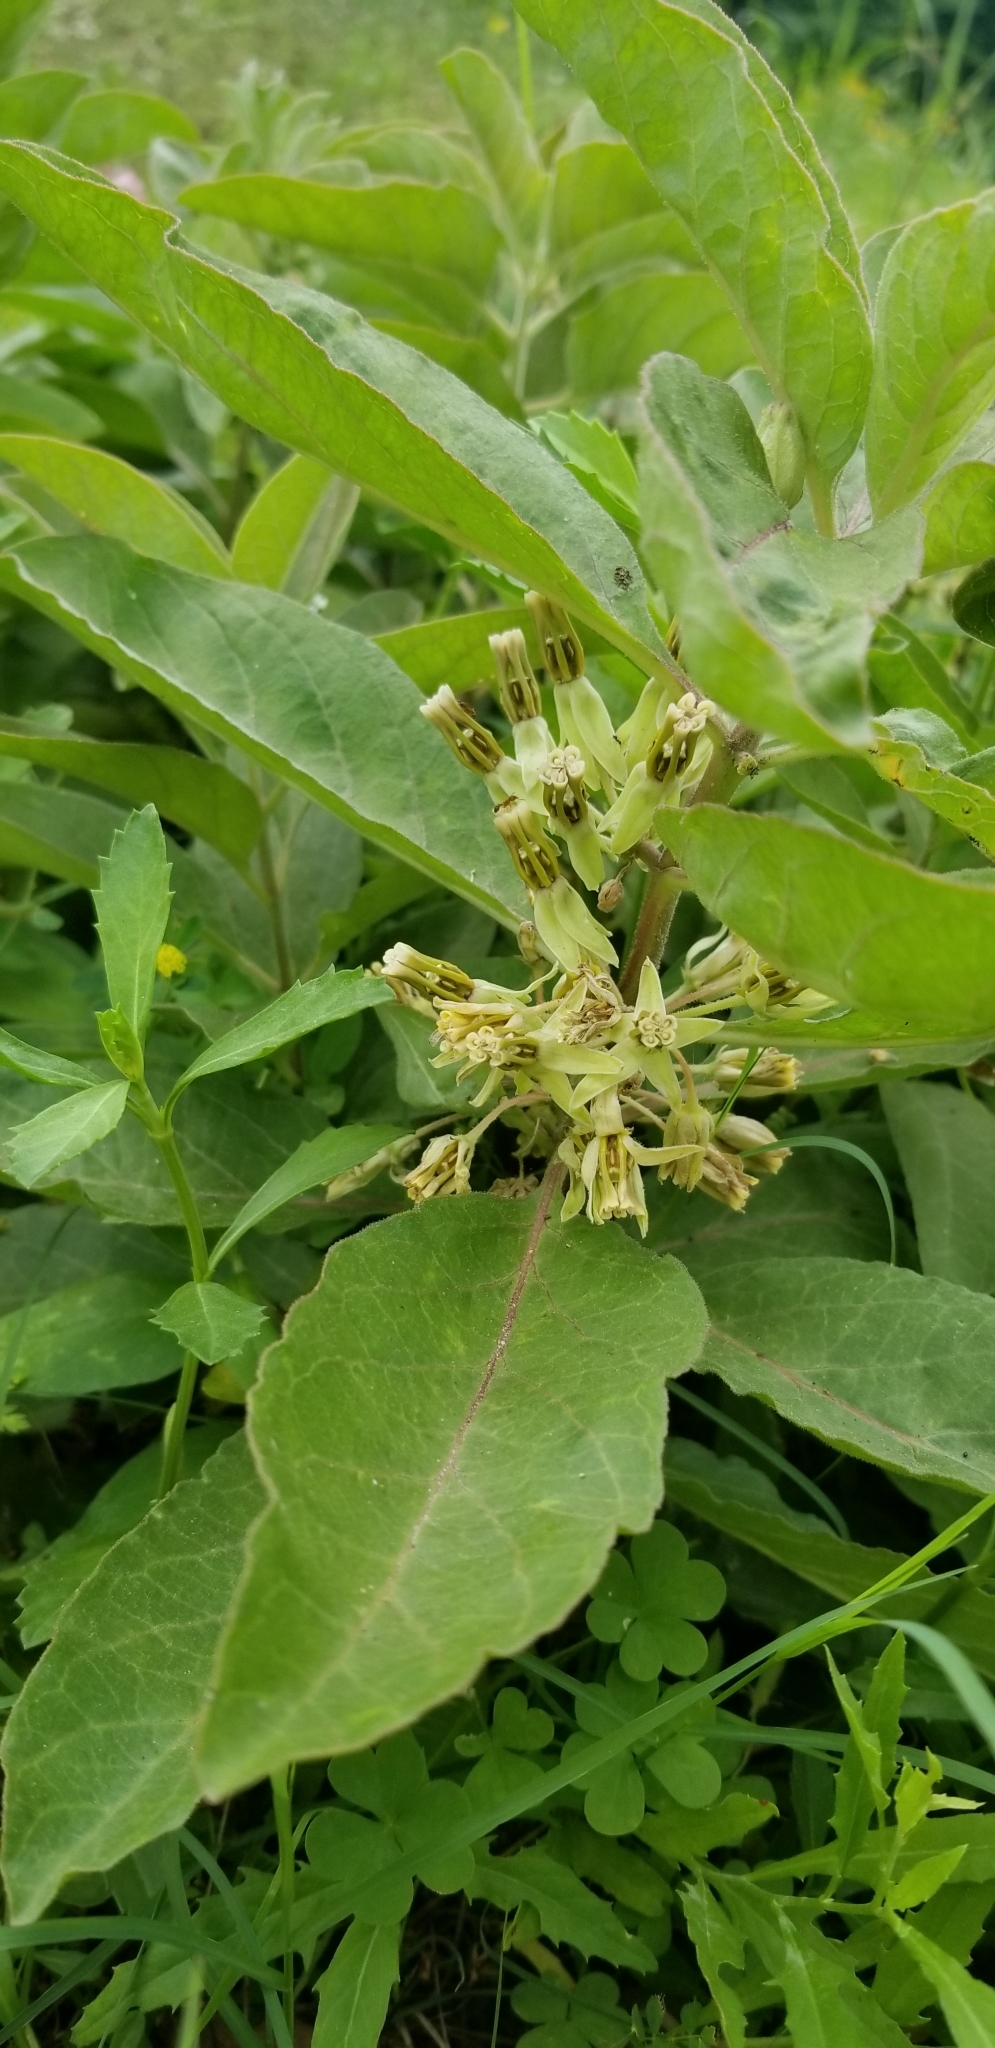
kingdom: Plantae
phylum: Tracheophyta
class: Magnoliopsida
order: Gentianales
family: Apocynaceae
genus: Asclepias
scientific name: Asclepias oenotheroides
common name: Zizotes milkweed
